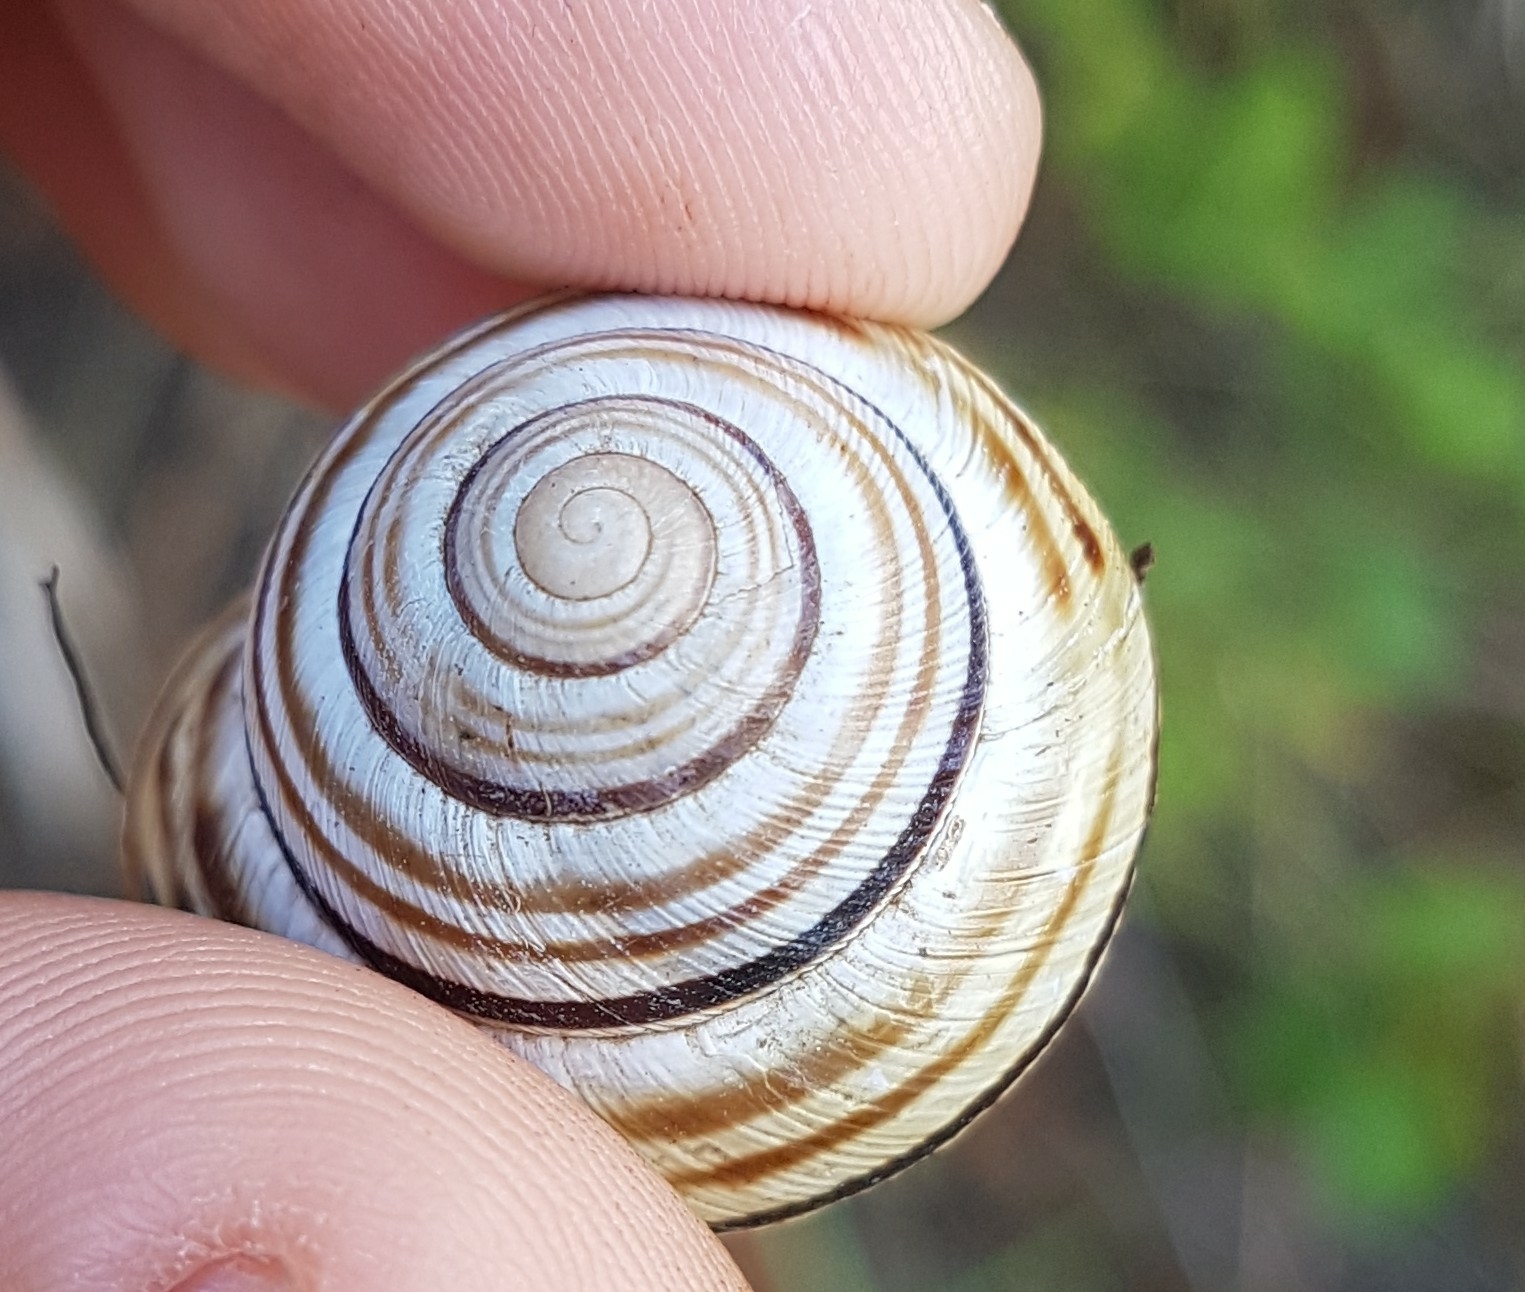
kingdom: Animalia
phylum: Mollusca
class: Gastropoda
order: Stylommatophora
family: Helicidae
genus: Caucasotachea
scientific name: Caucasotachea vindobonensis
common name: European helicid land snail
